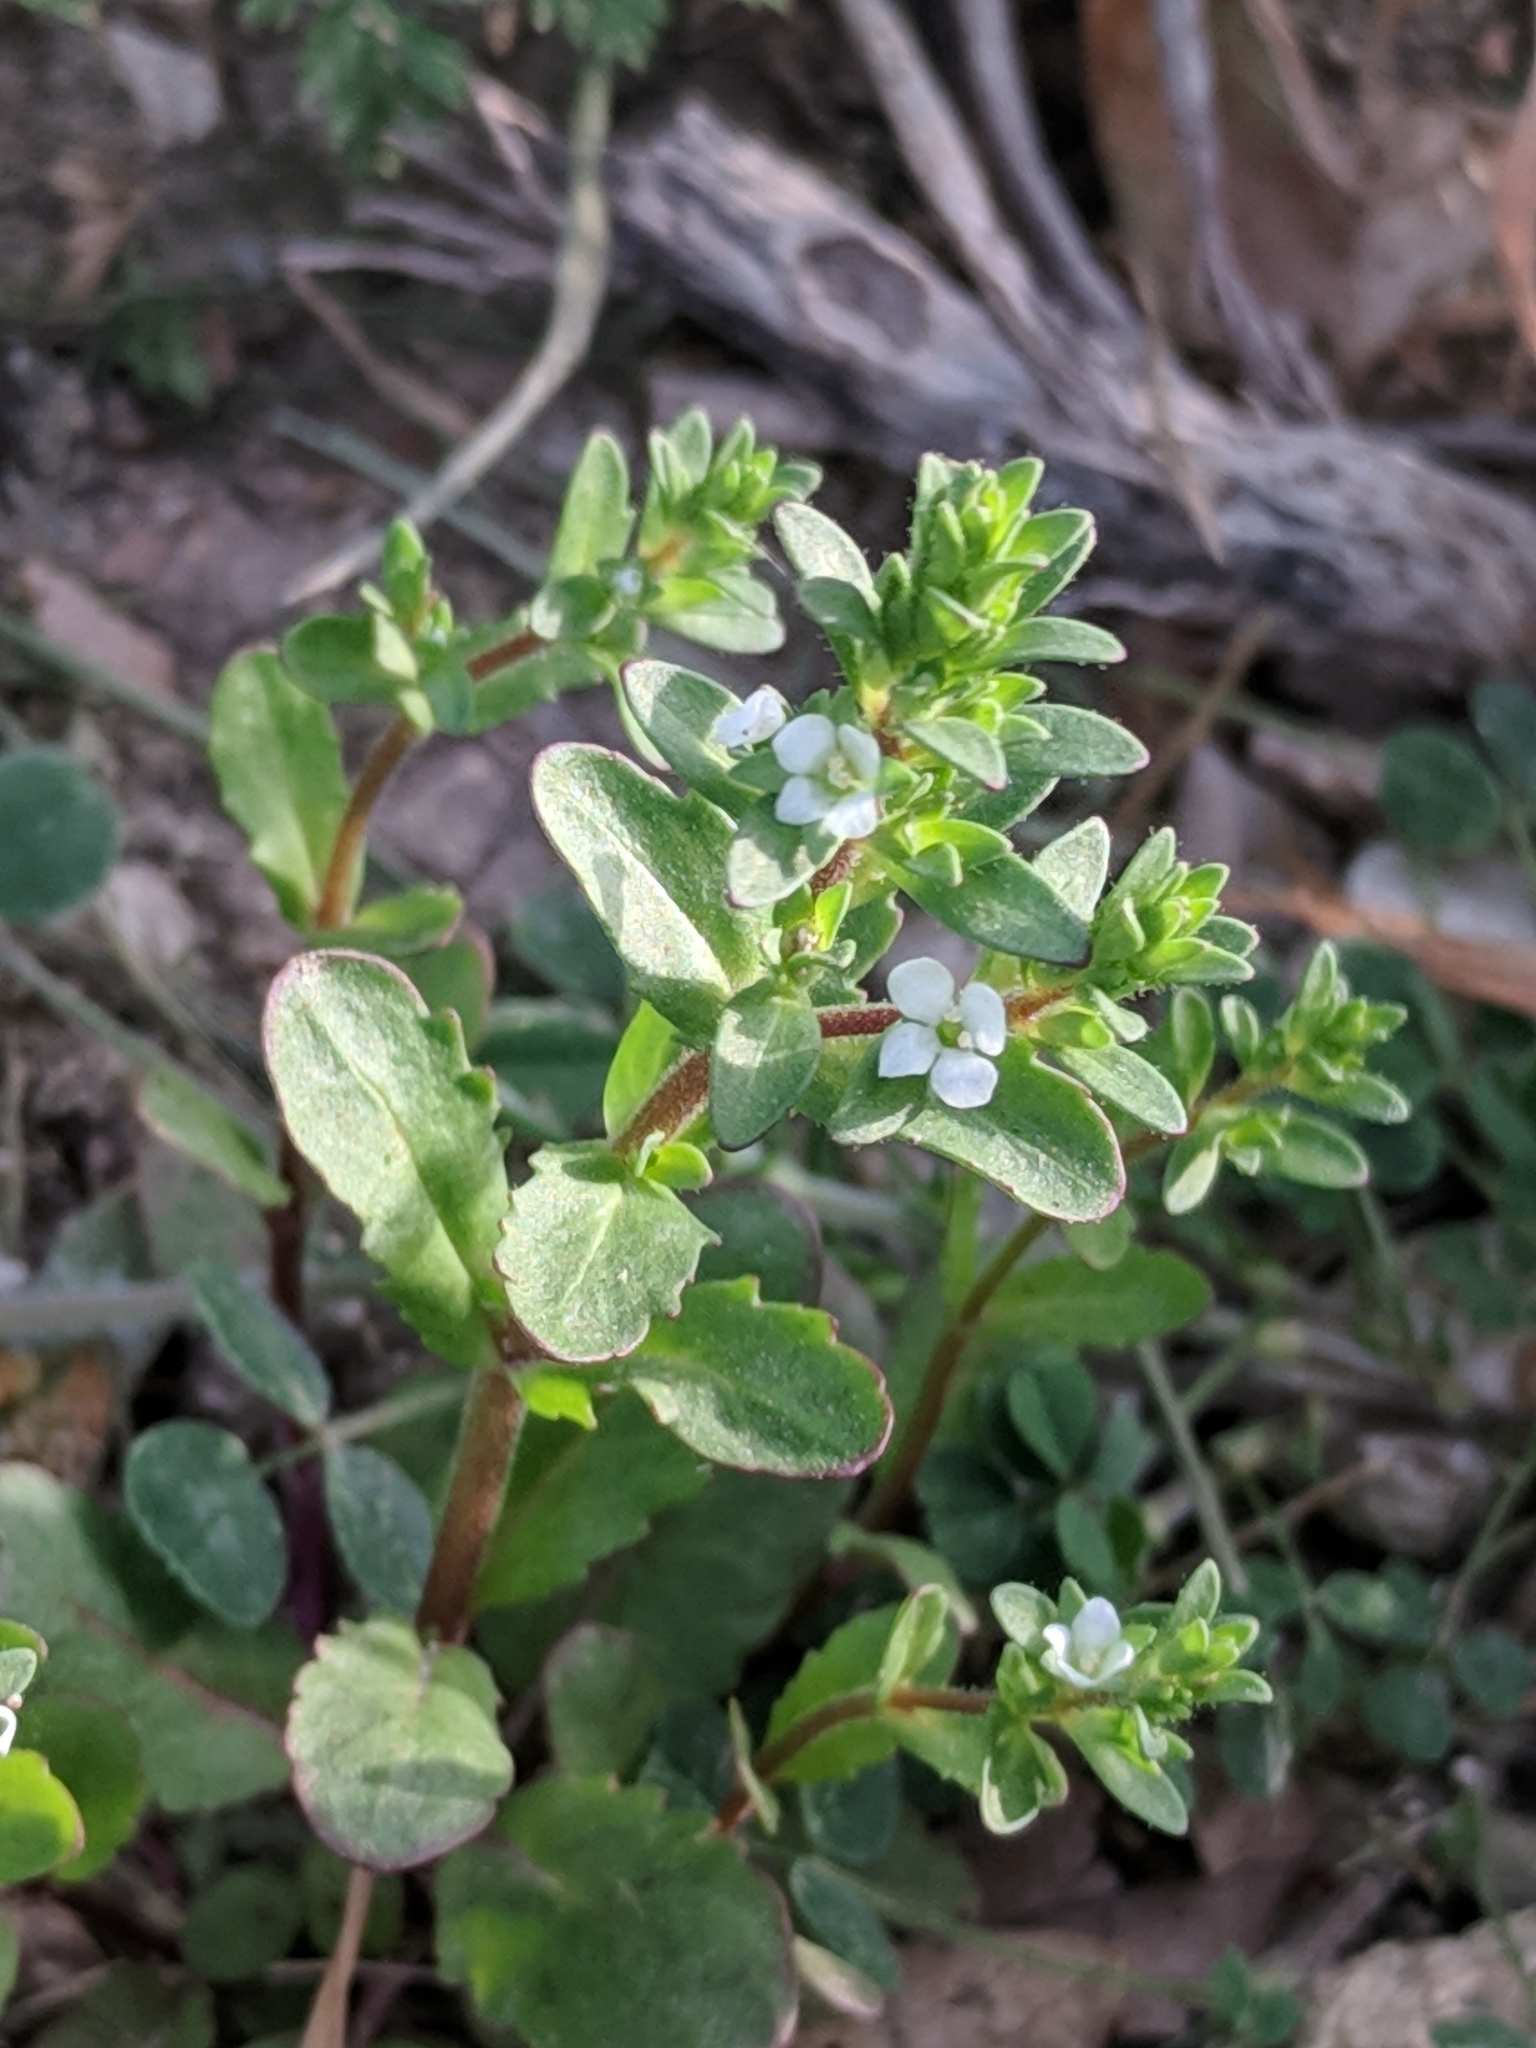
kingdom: Plantae
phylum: Tracheophyta
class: Magnoliopsida
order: Lamiales
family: Plantaginaceae
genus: Veronica
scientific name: Veronica peregrina
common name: Neckweed
